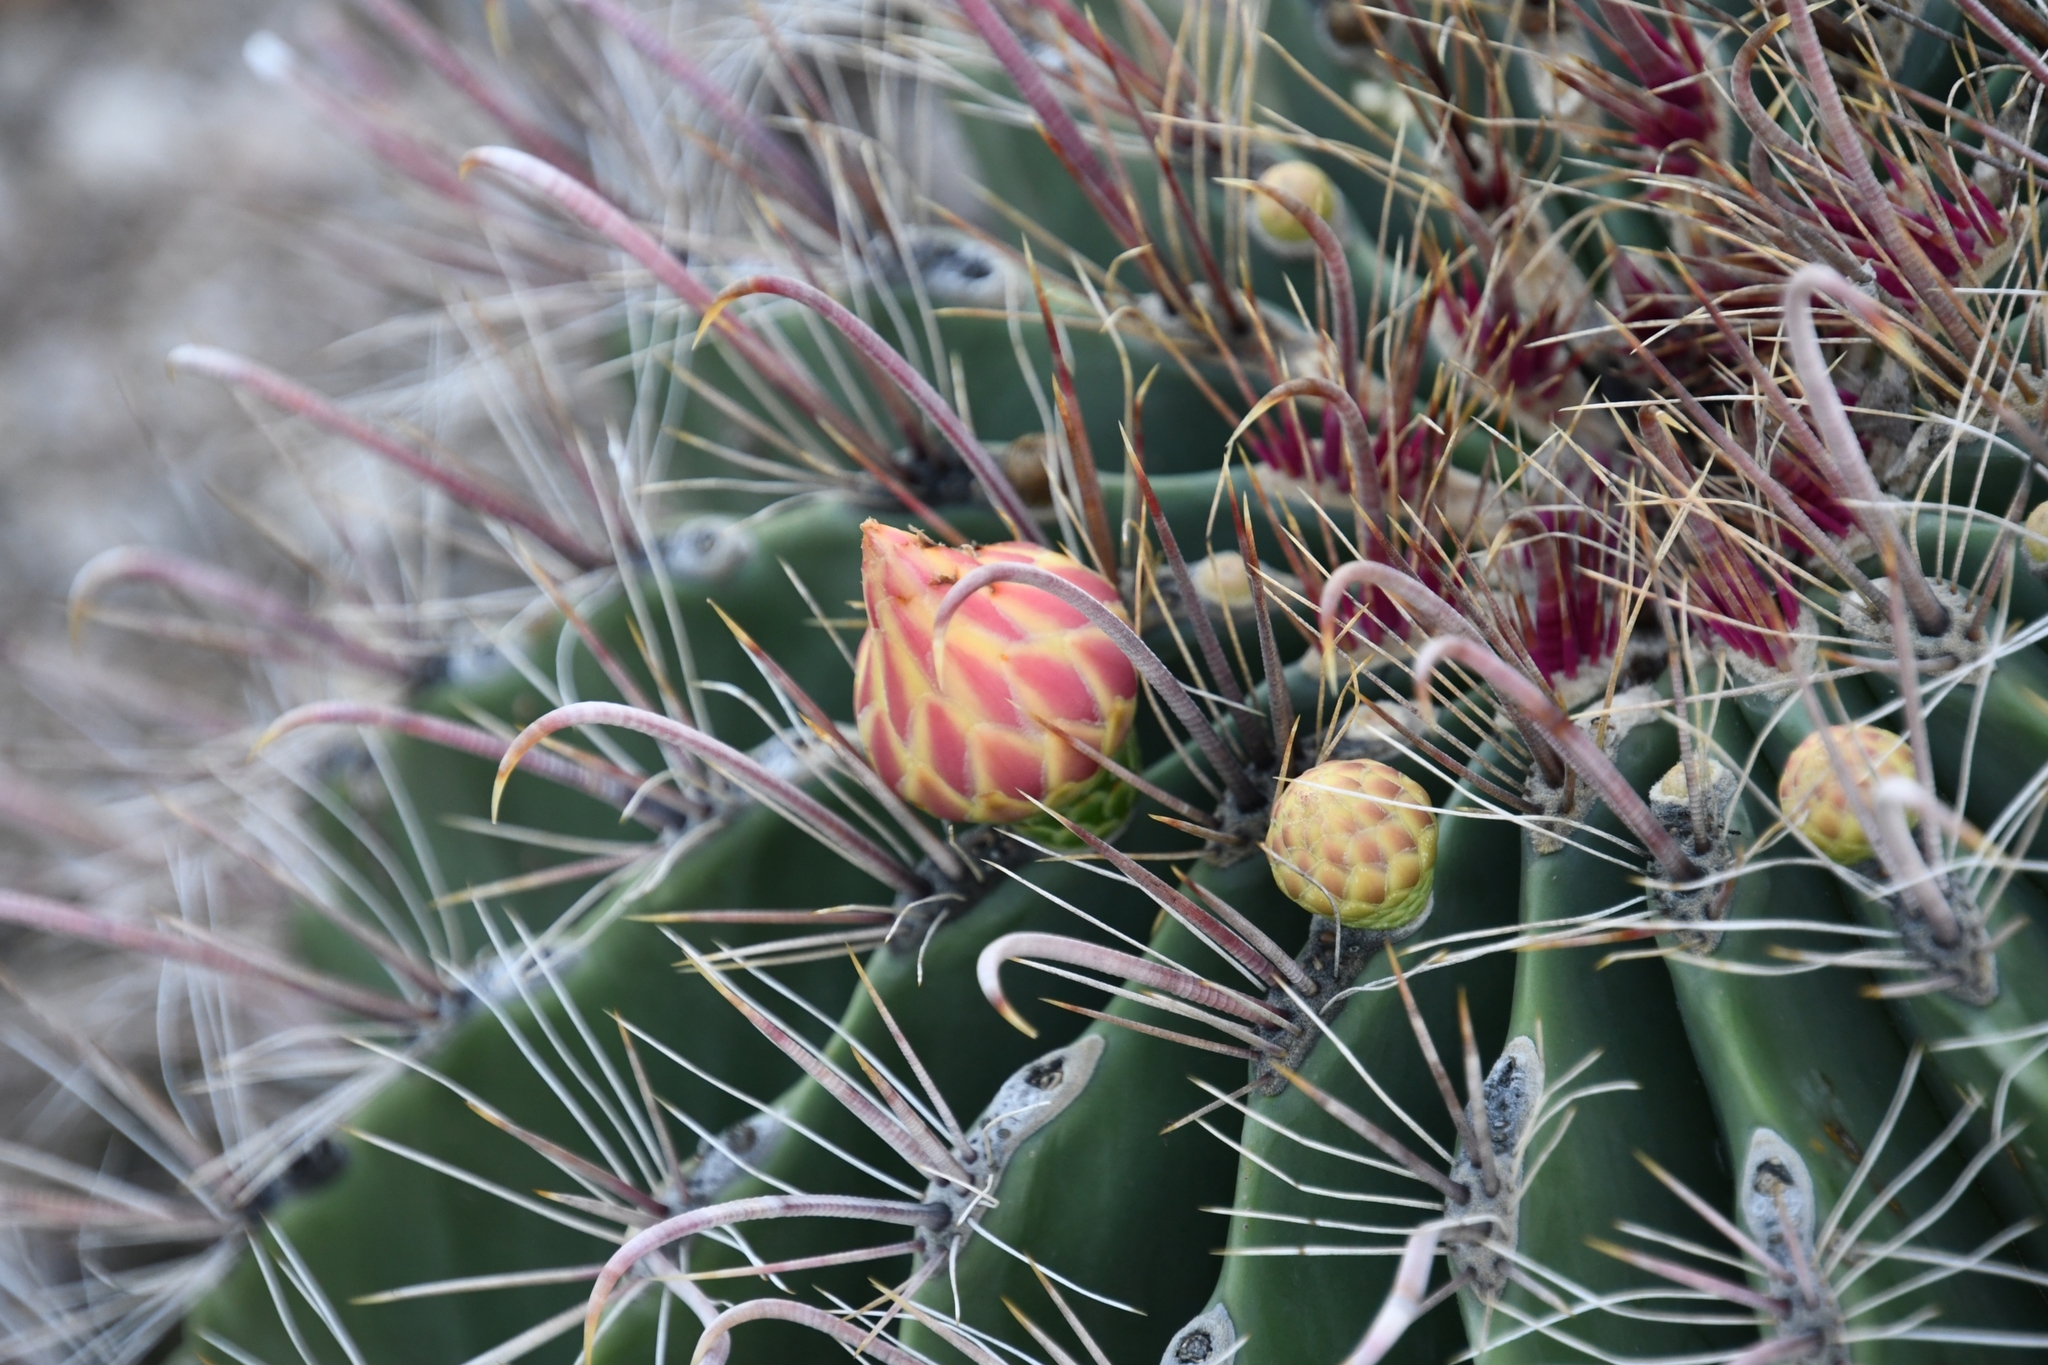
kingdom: Plantae
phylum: Tracheophyta
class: Magnoliopsida
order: Caryophyllales
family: Cactaceae
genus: Ferocactus
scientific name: Ferocactus wislizeni
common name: Candy barrel cactus
